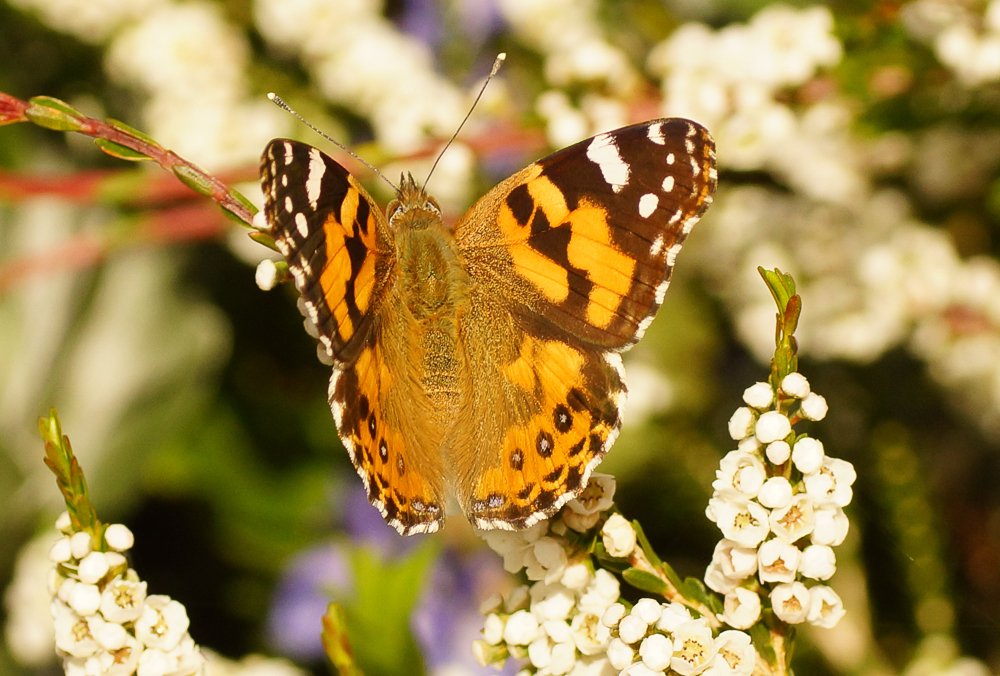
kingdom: Animalia
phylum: Arthropoda
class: Insecta
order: Lepidoptera
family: Nymphalidae
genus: Vanessa
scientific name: Vanessa kershawi
